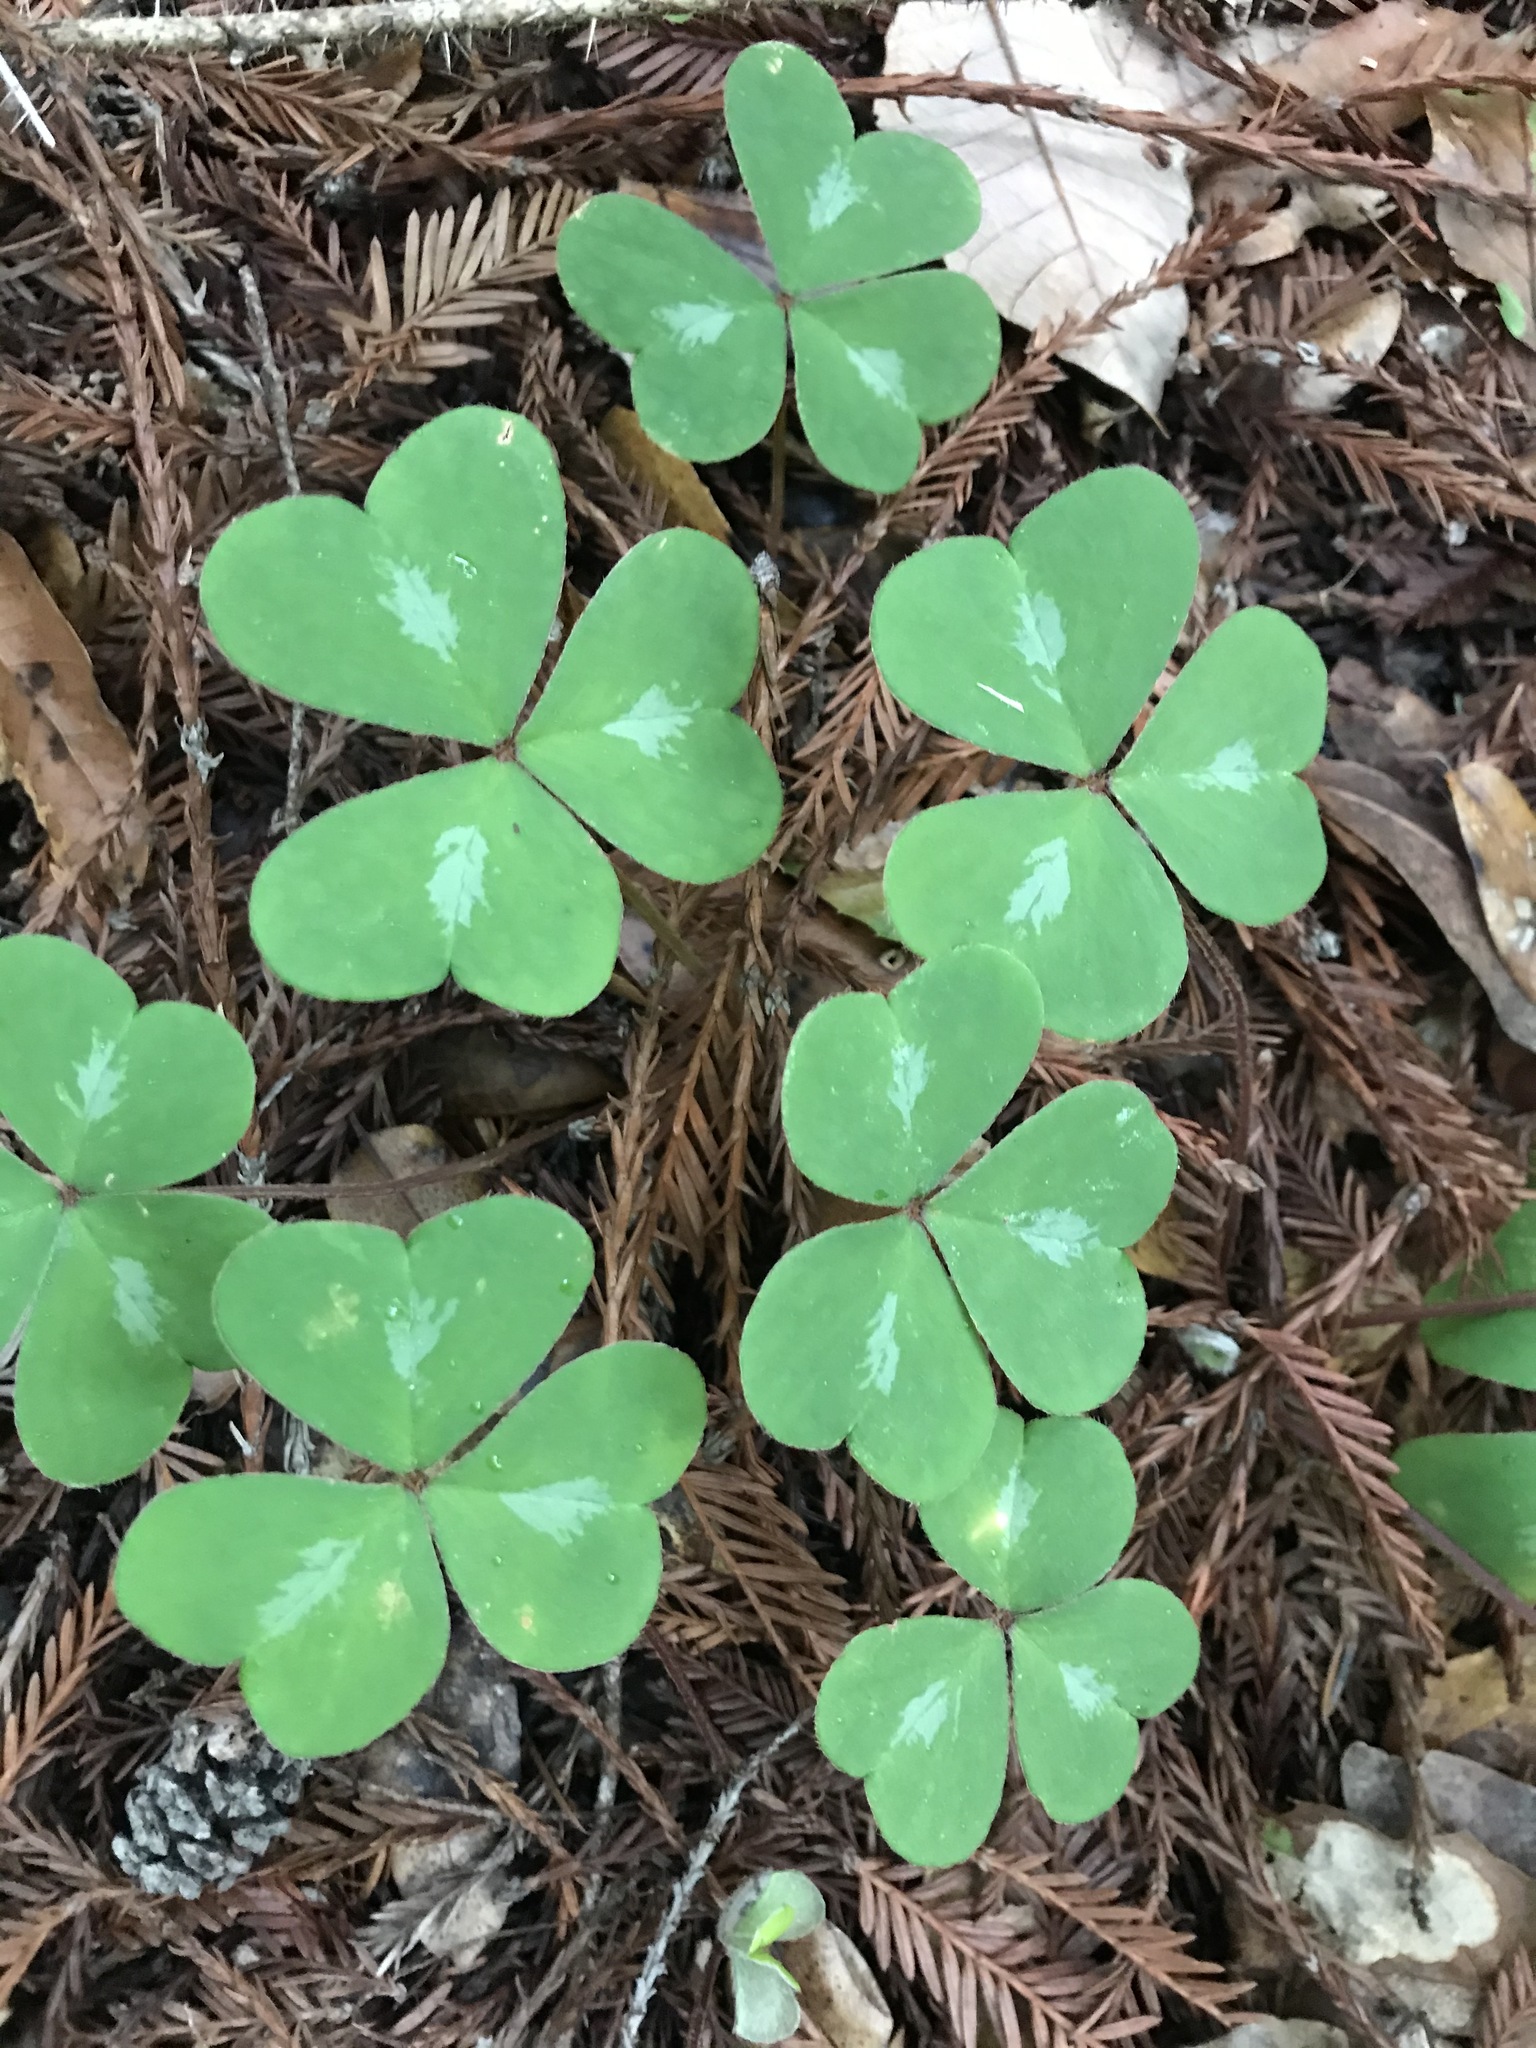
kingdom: Plantae
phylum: Tracheophyta
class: Magnoliopsida
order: Oxalidales
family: Oxalidaceae
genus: Oxalis
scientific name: Oxalis oregana
